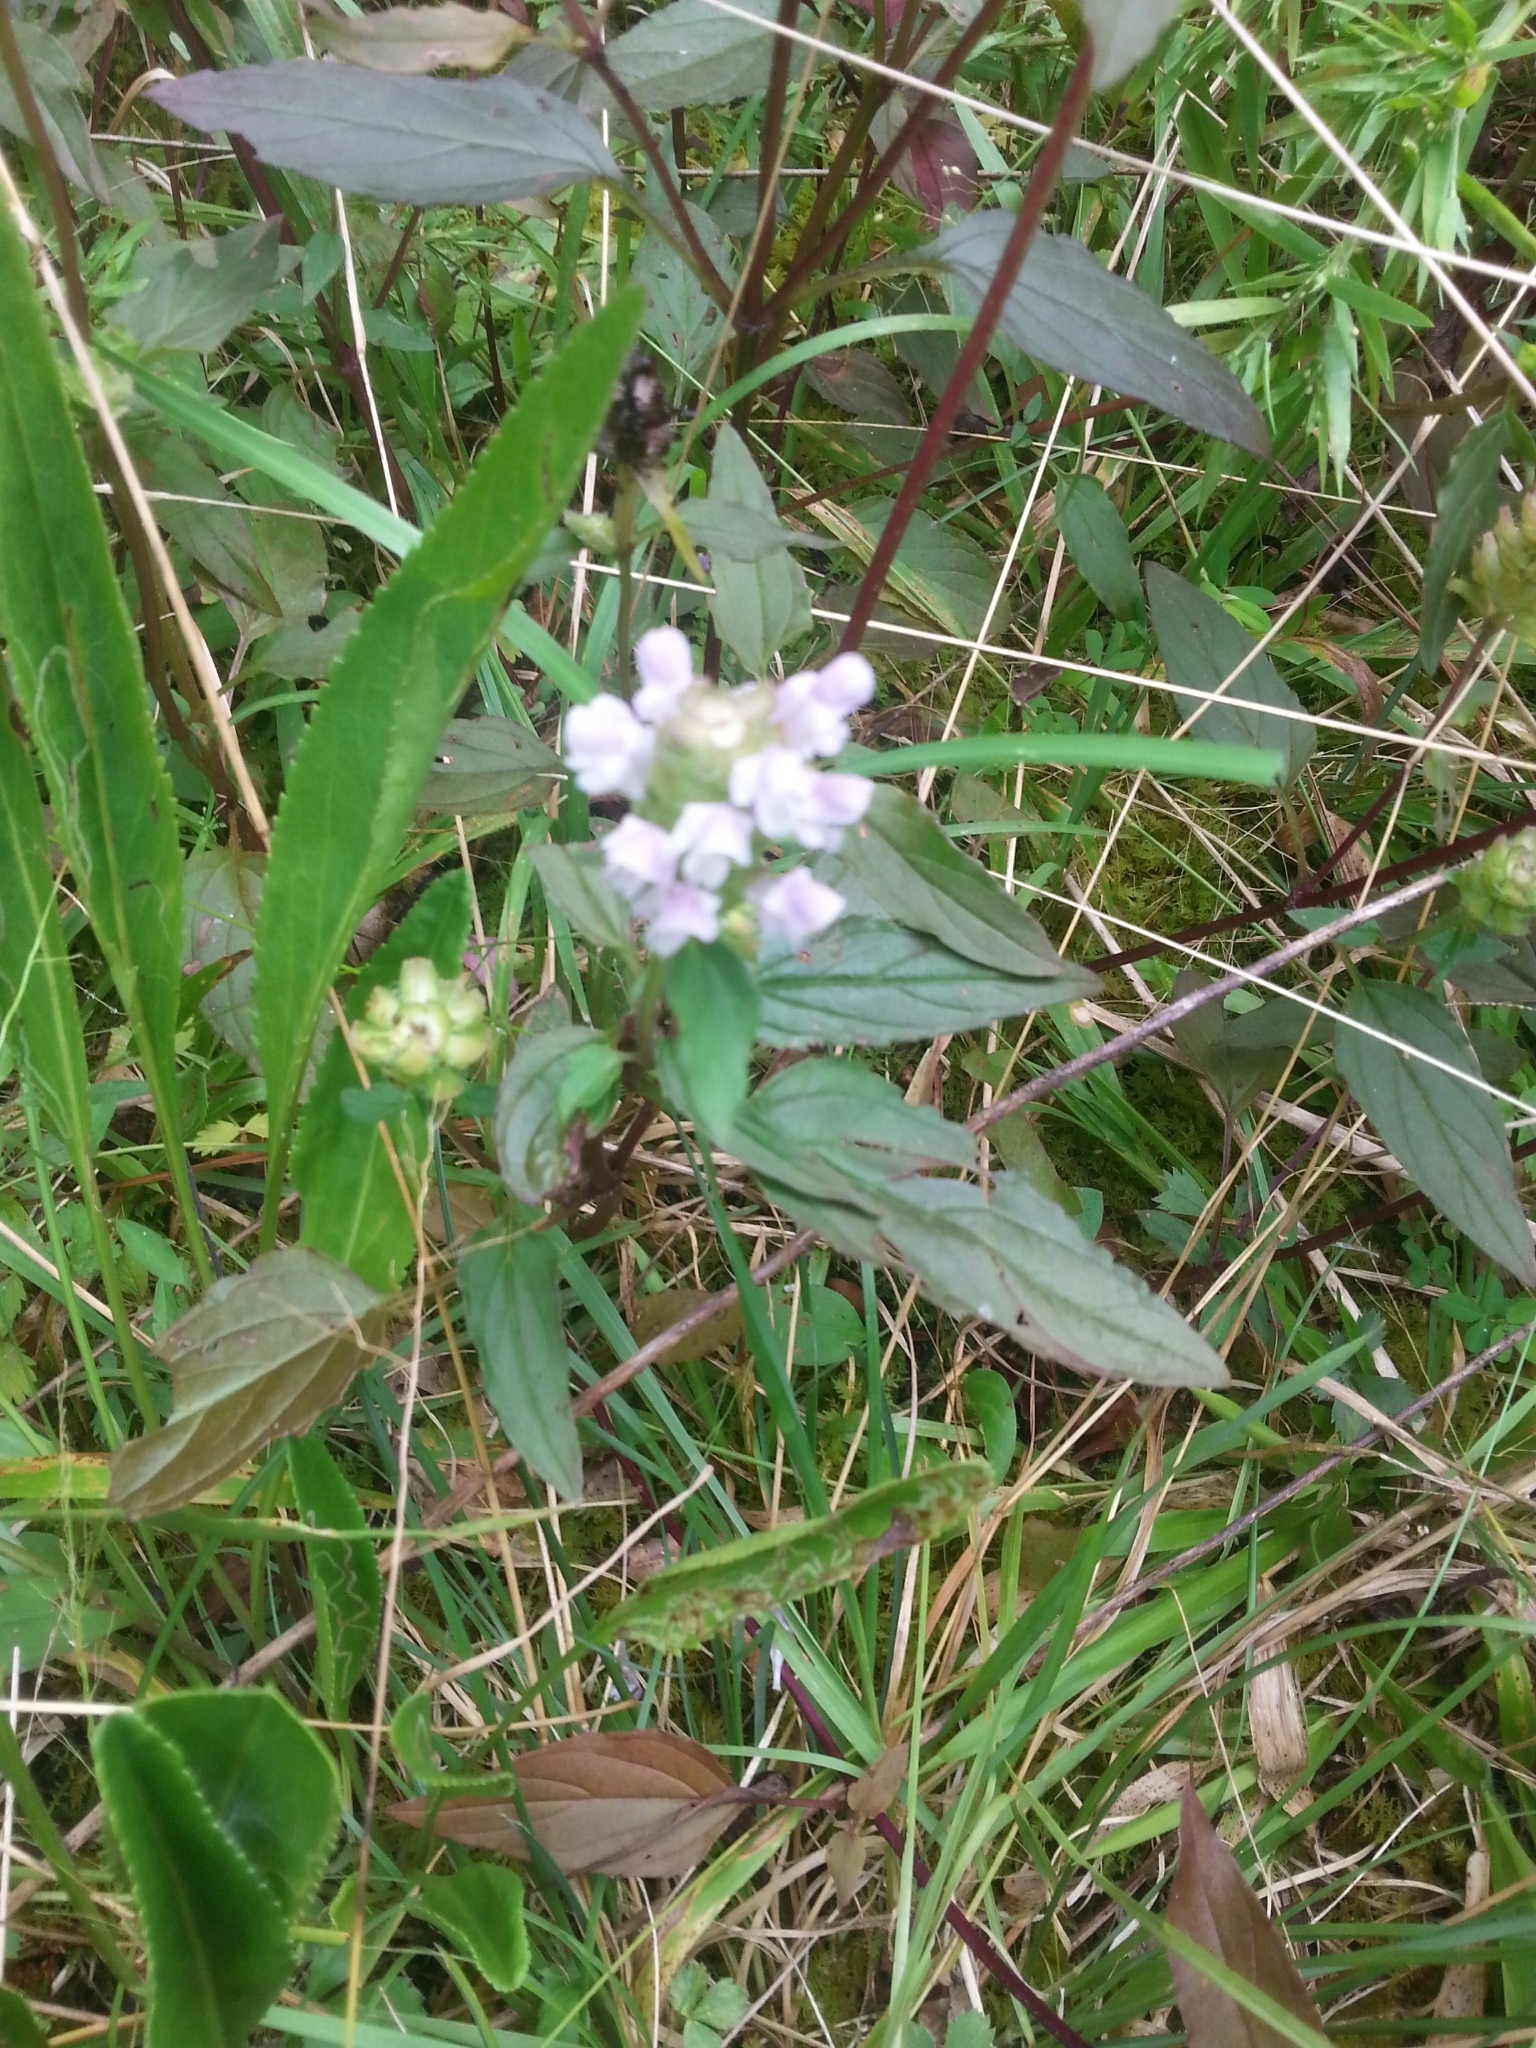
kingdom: Plantae
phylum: Tracheophyta
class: Magnoliopsida
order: Lamiales
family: Lamiaceae
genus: Prunella
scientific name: Prunella vulgaris
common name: Heal-all
